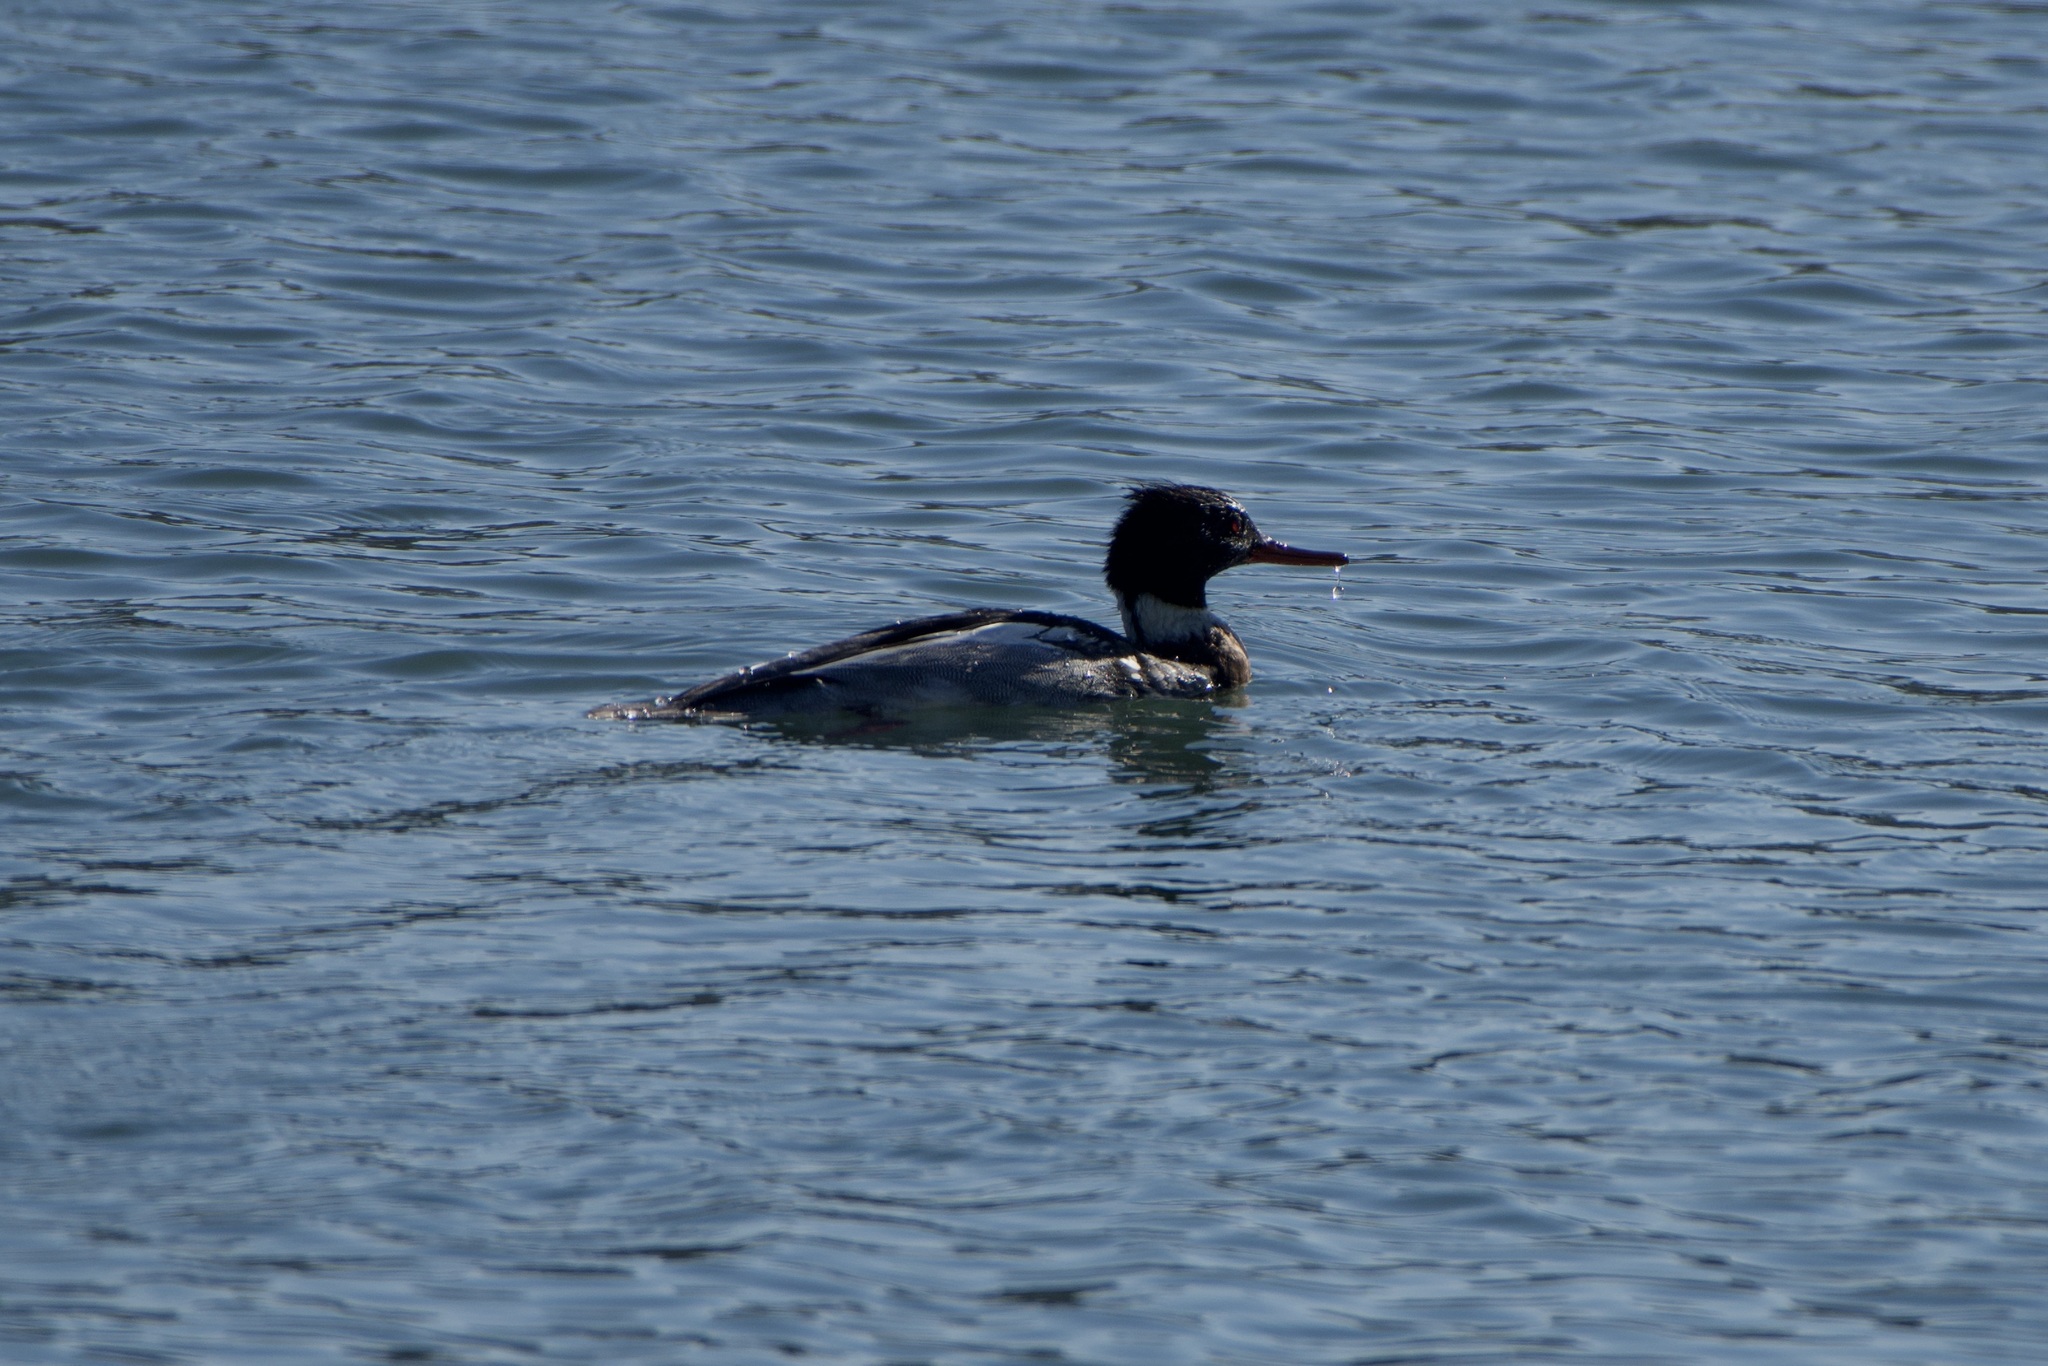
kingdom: Animalia
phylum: Chordata
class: Aves
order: Anseriformes
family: Anatidae
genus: Mergus
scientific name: Mergus serrator
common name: Red-breasted merganser
